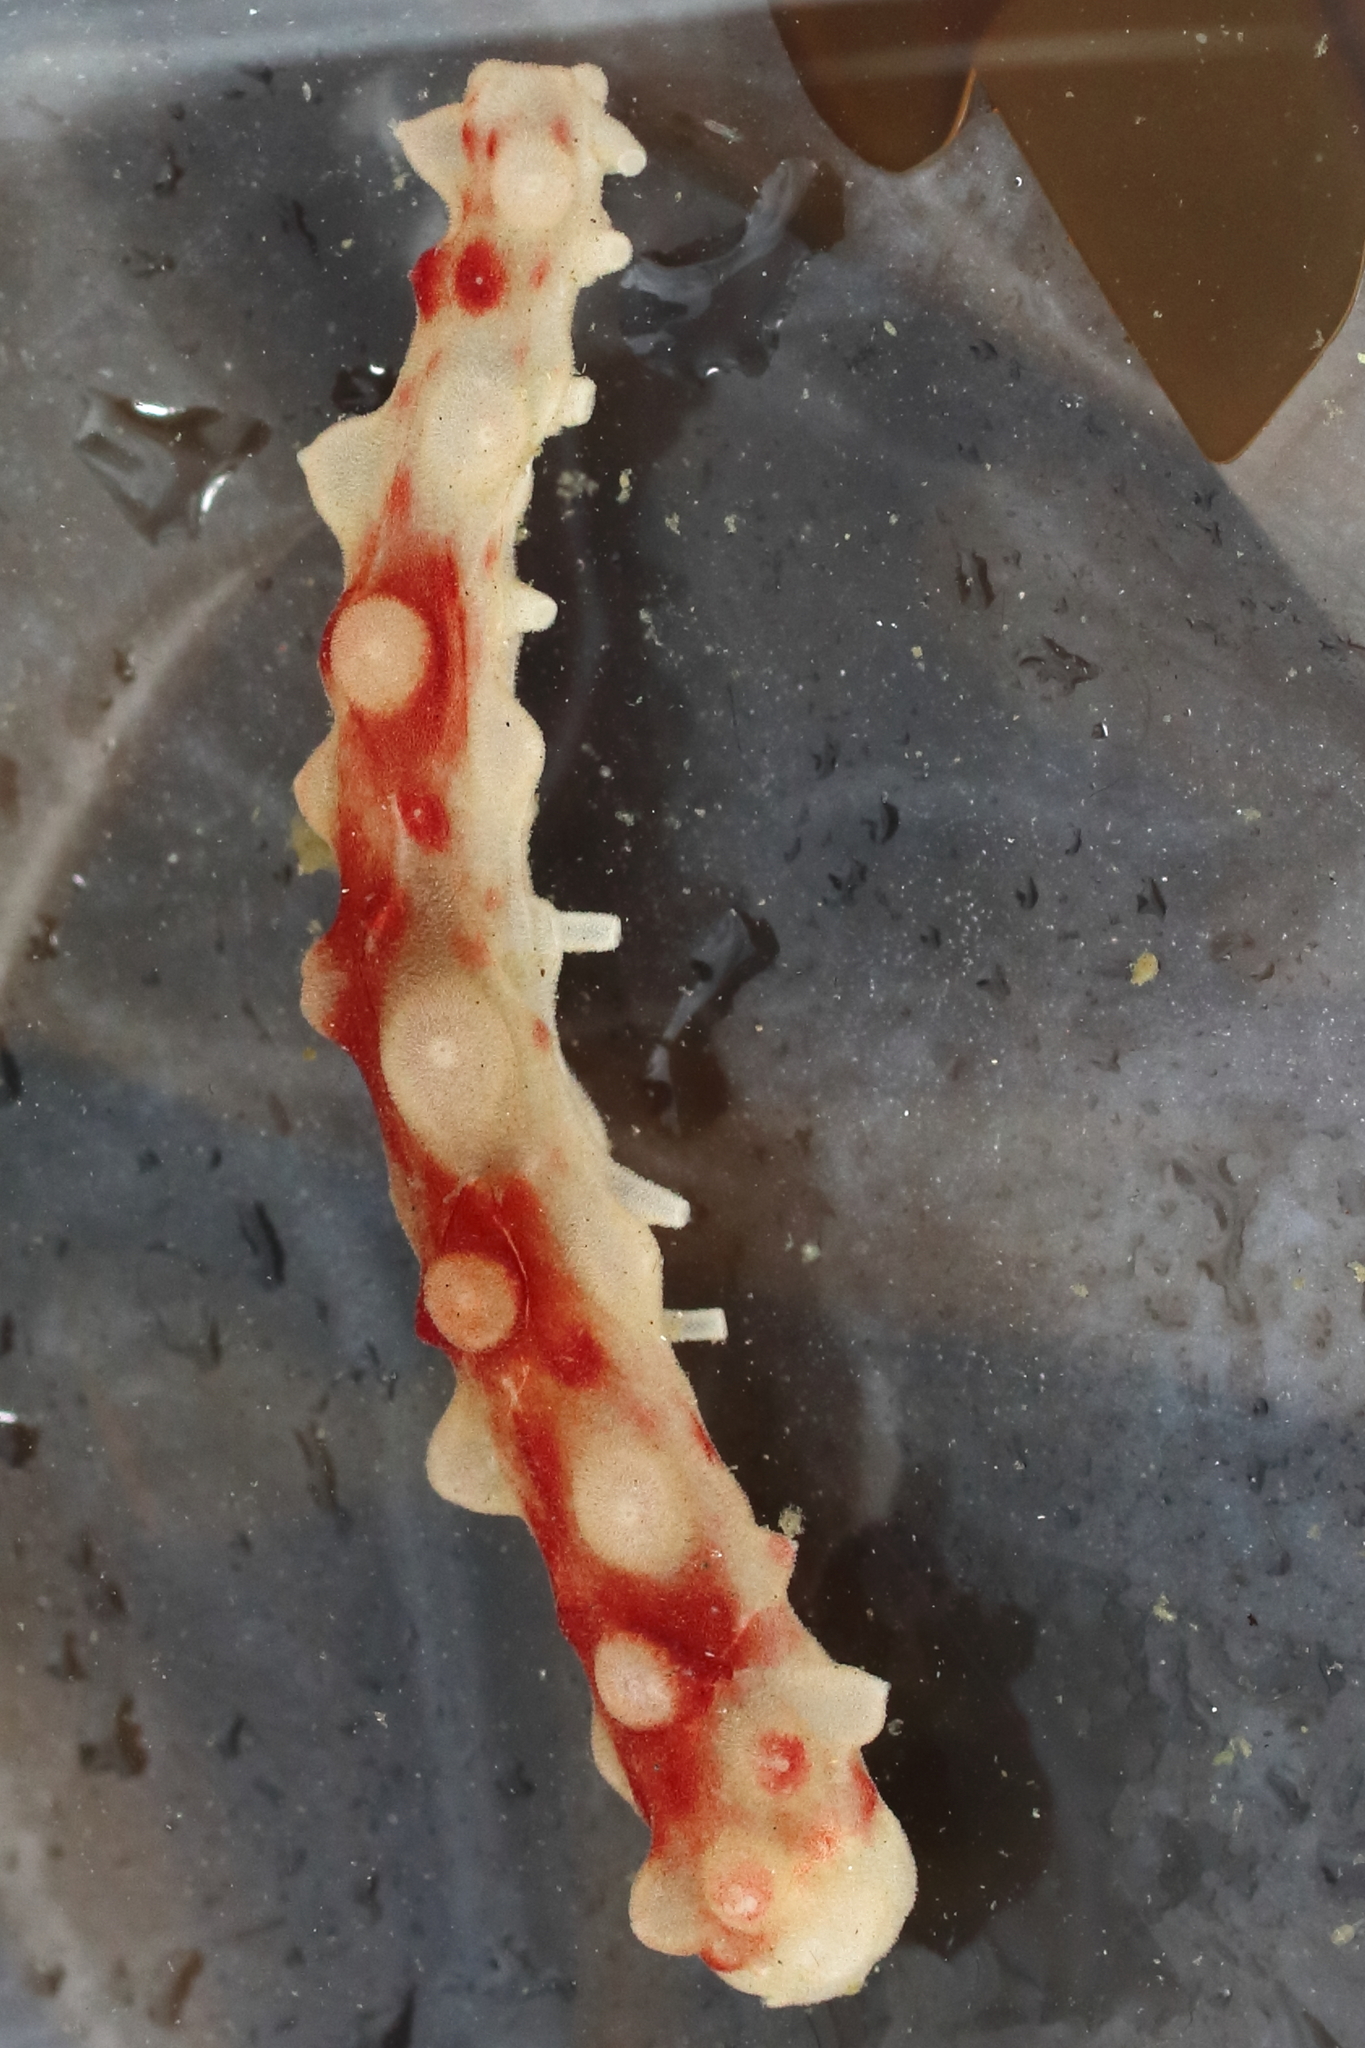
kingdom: Animalia
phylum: Echinodermata
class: Holothuroidea
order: Synallactida
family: Stichopodidae
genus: Apostichopus
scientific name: Apostichopus californicus
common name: California sea cucumber
